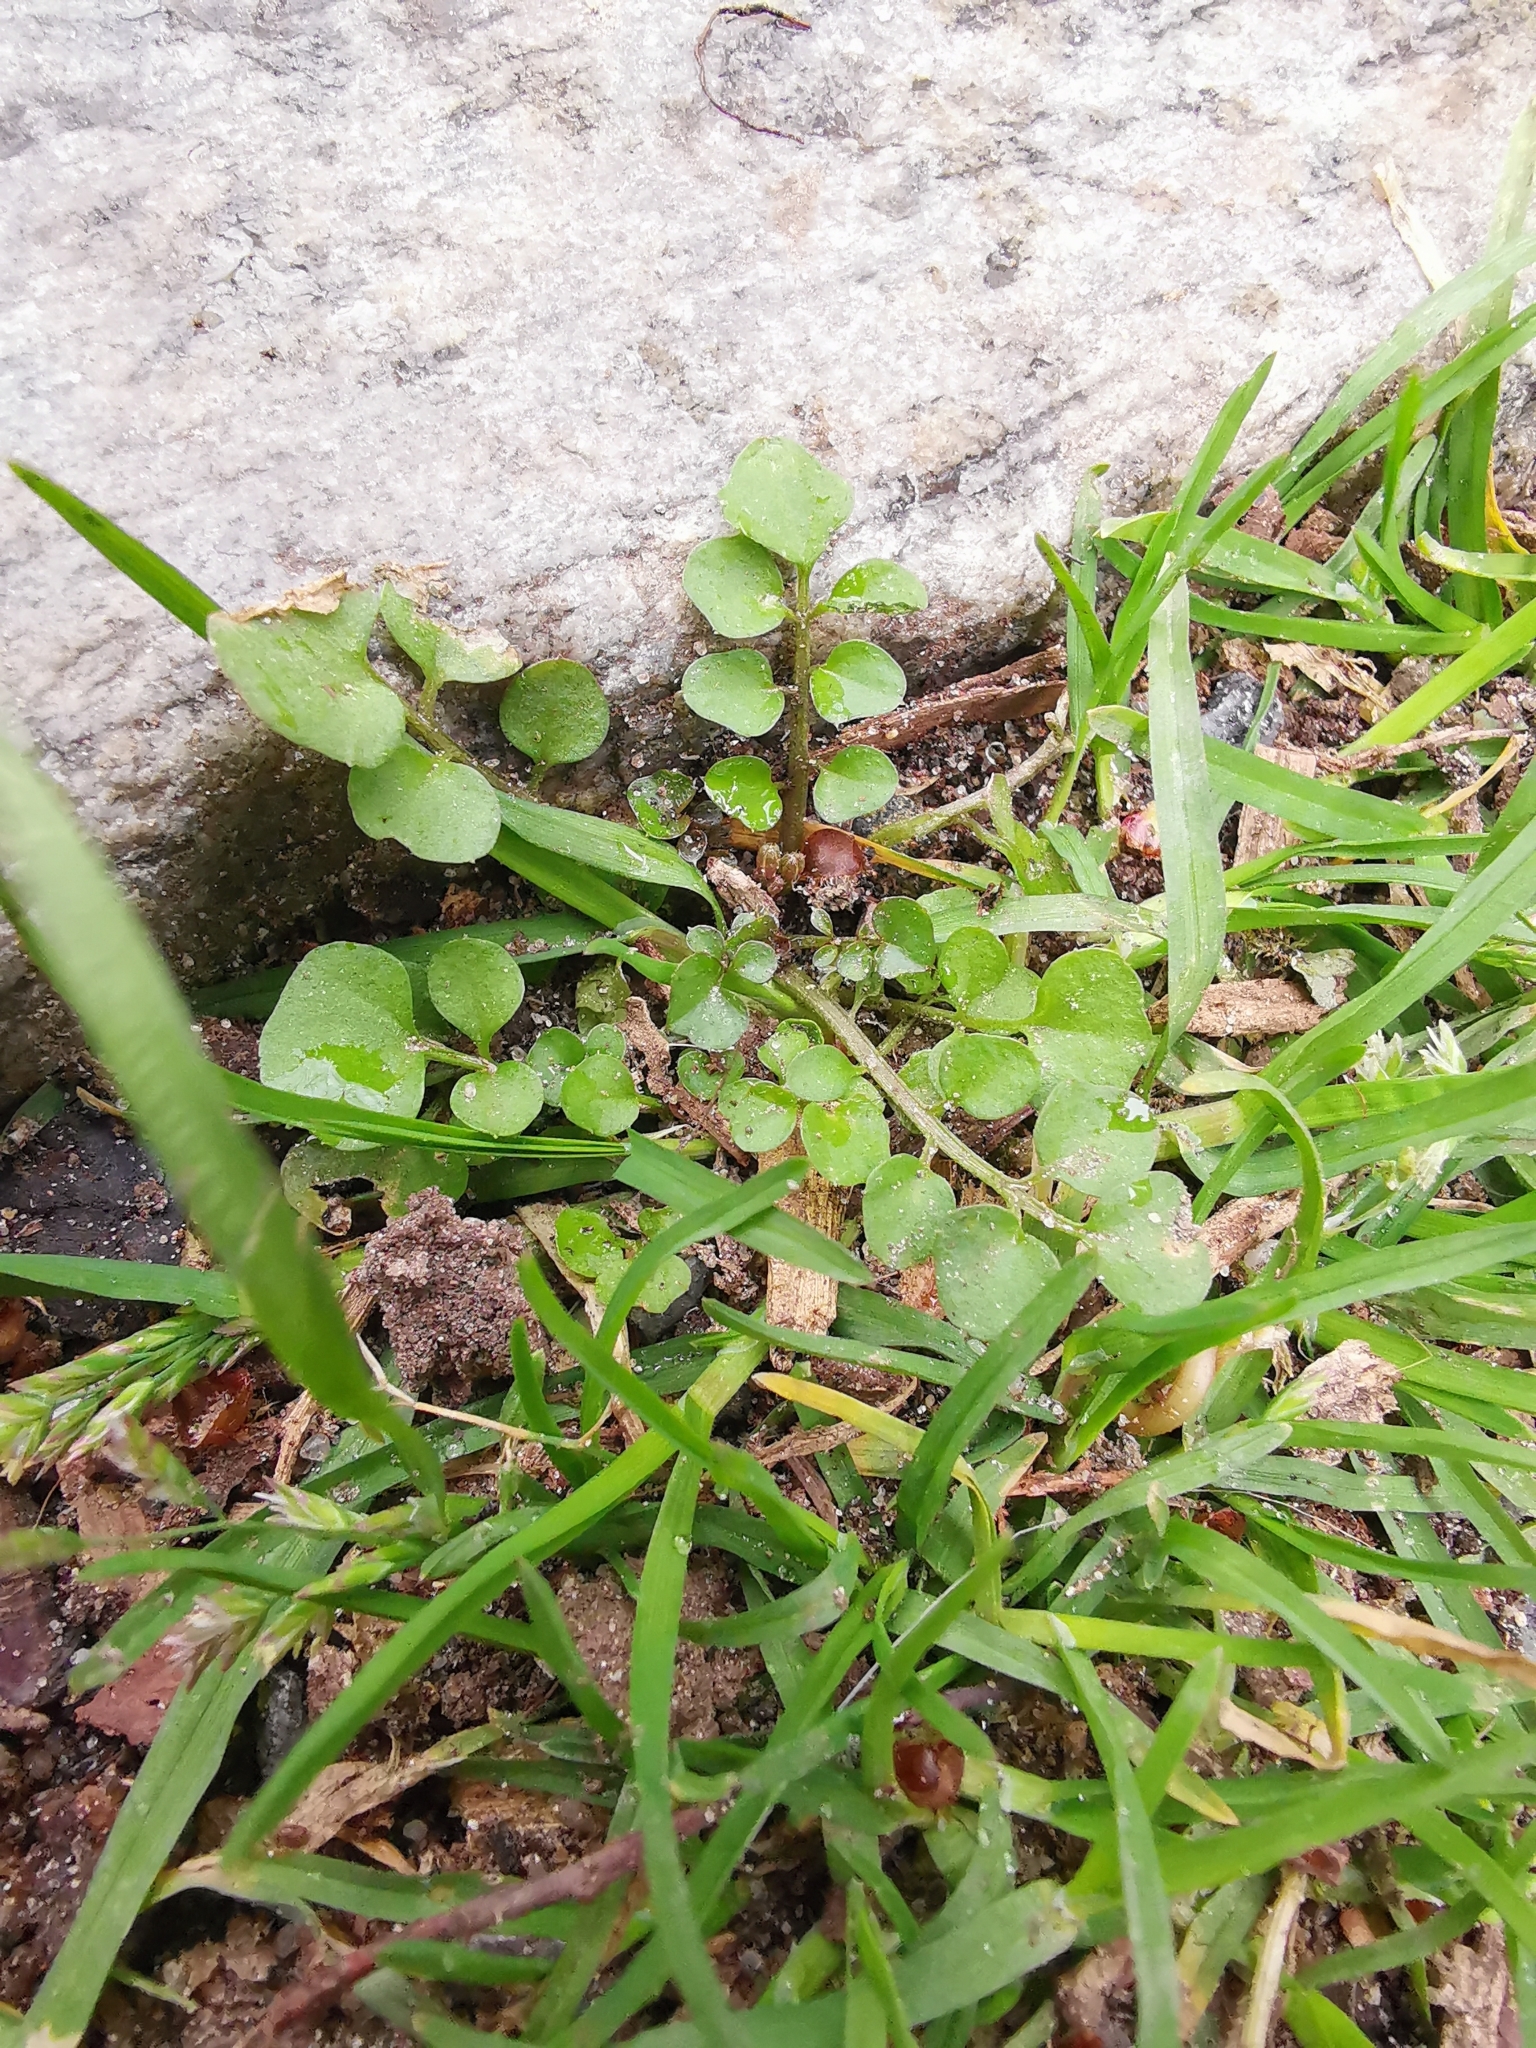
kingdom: Plantae
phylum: Tracheophyta
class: Magnoliopsida
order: Brassicales
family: Brassicaceae
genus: Cardamine
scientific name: Cardamine hirsuta
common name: Hairy bittercress
